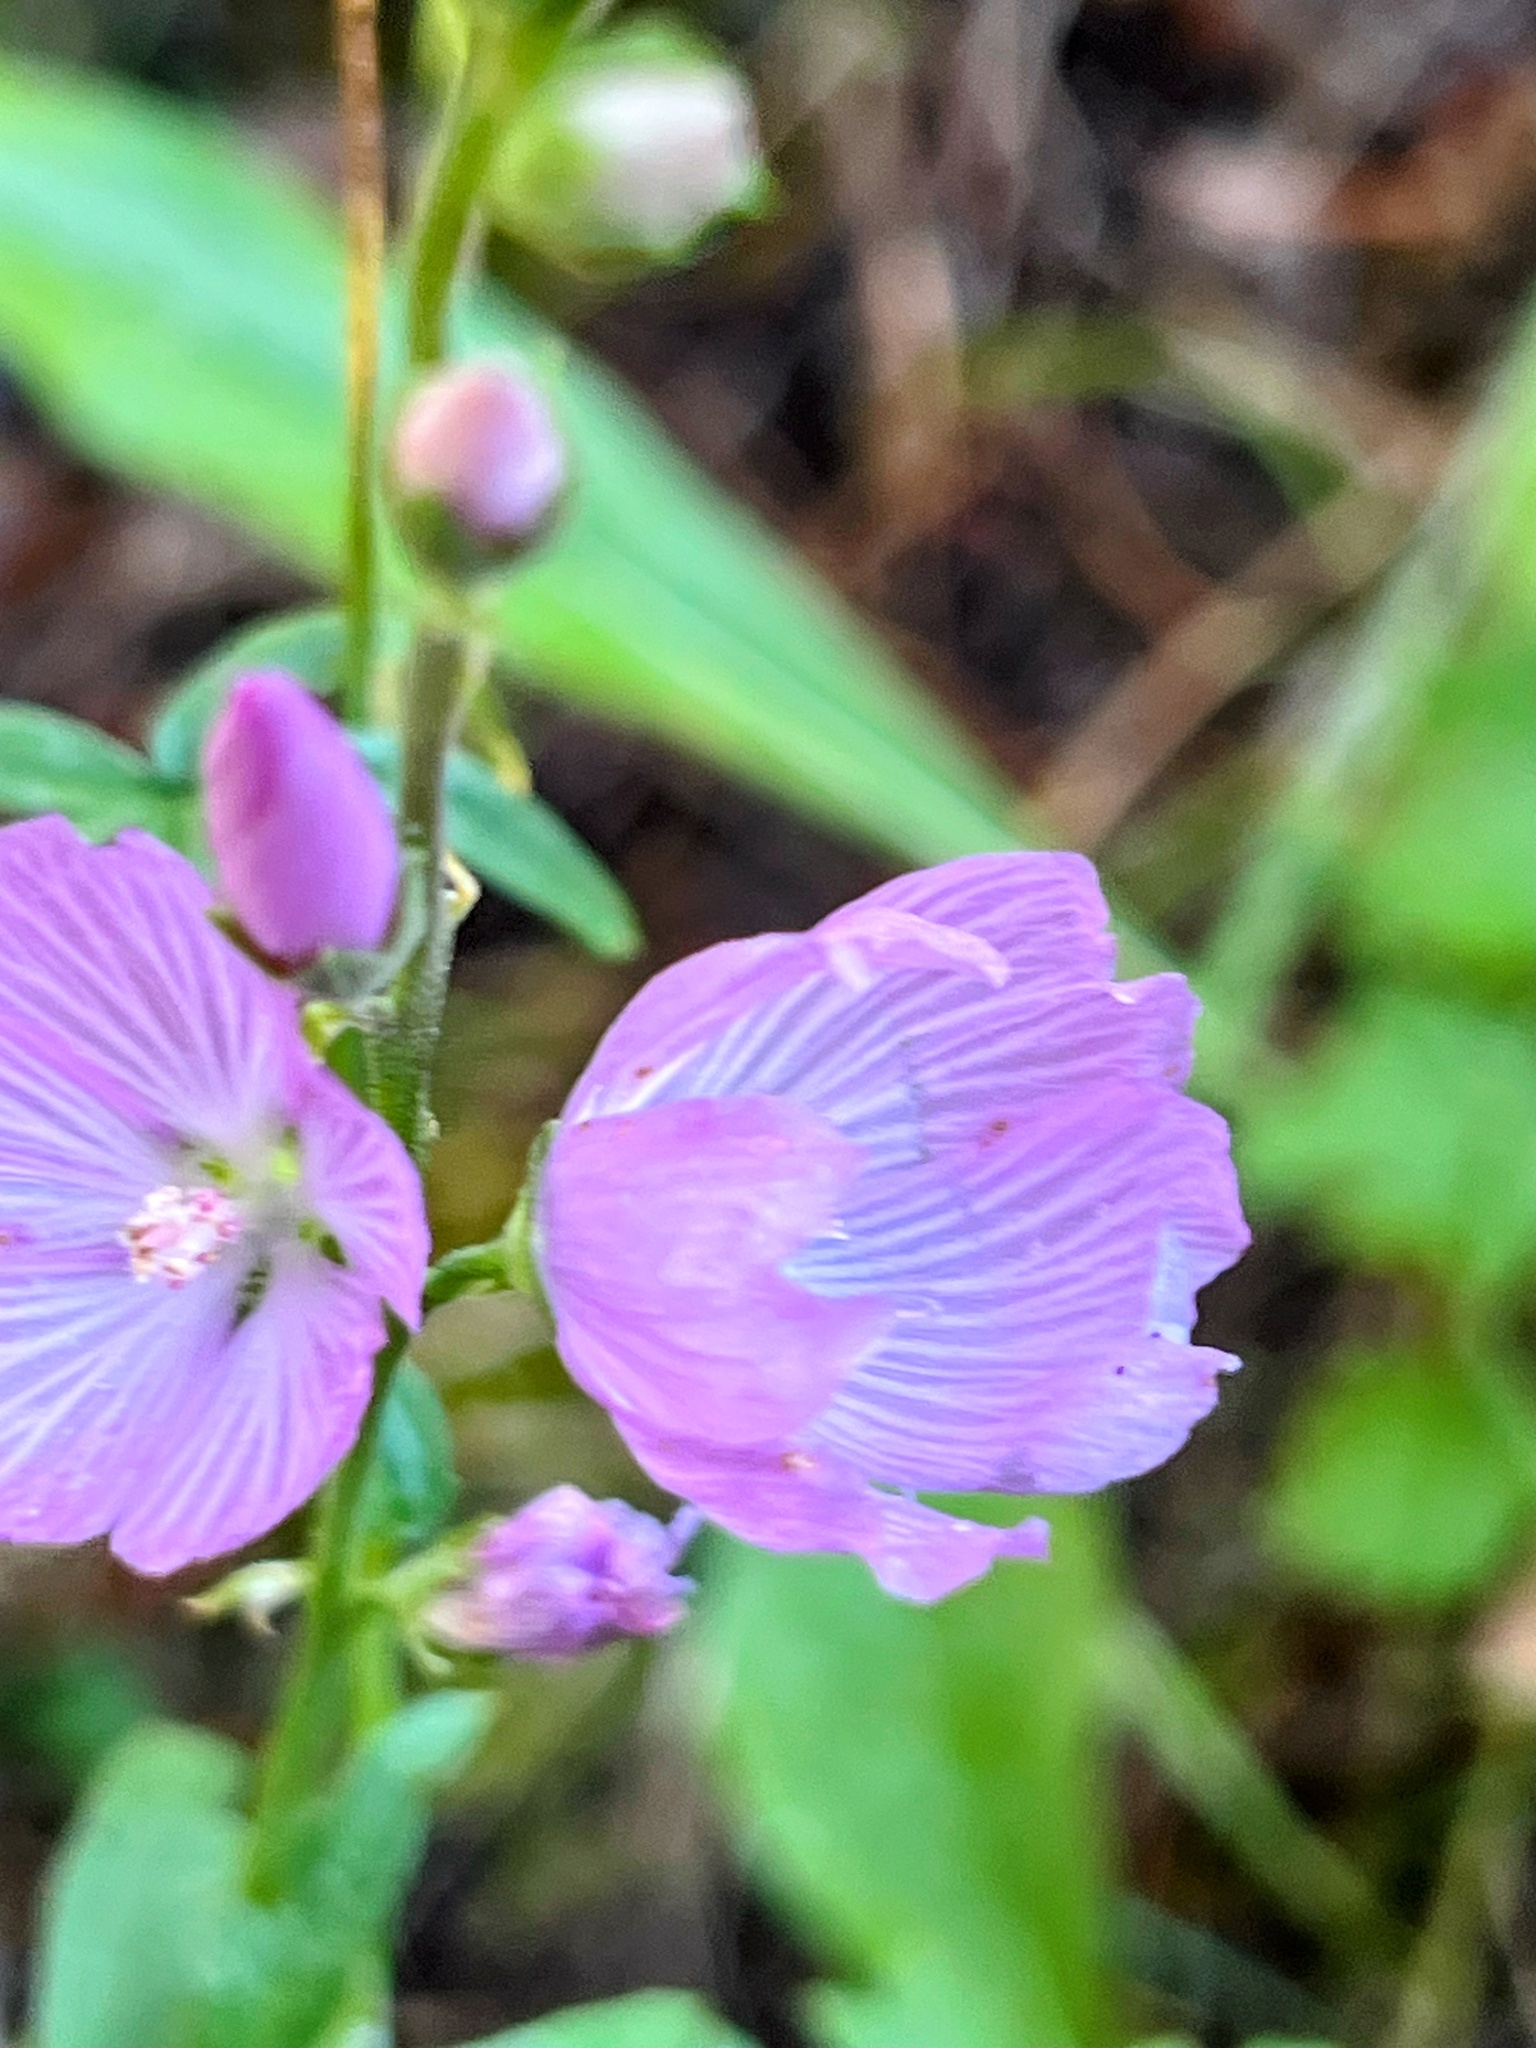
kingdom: Plantae
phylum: Tracheophyta
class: Magnoliopsida
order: Malvales
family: Malvaceae
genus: Sidalcea
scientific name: Sidalcea oregana
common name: Oregon checker-mallow
